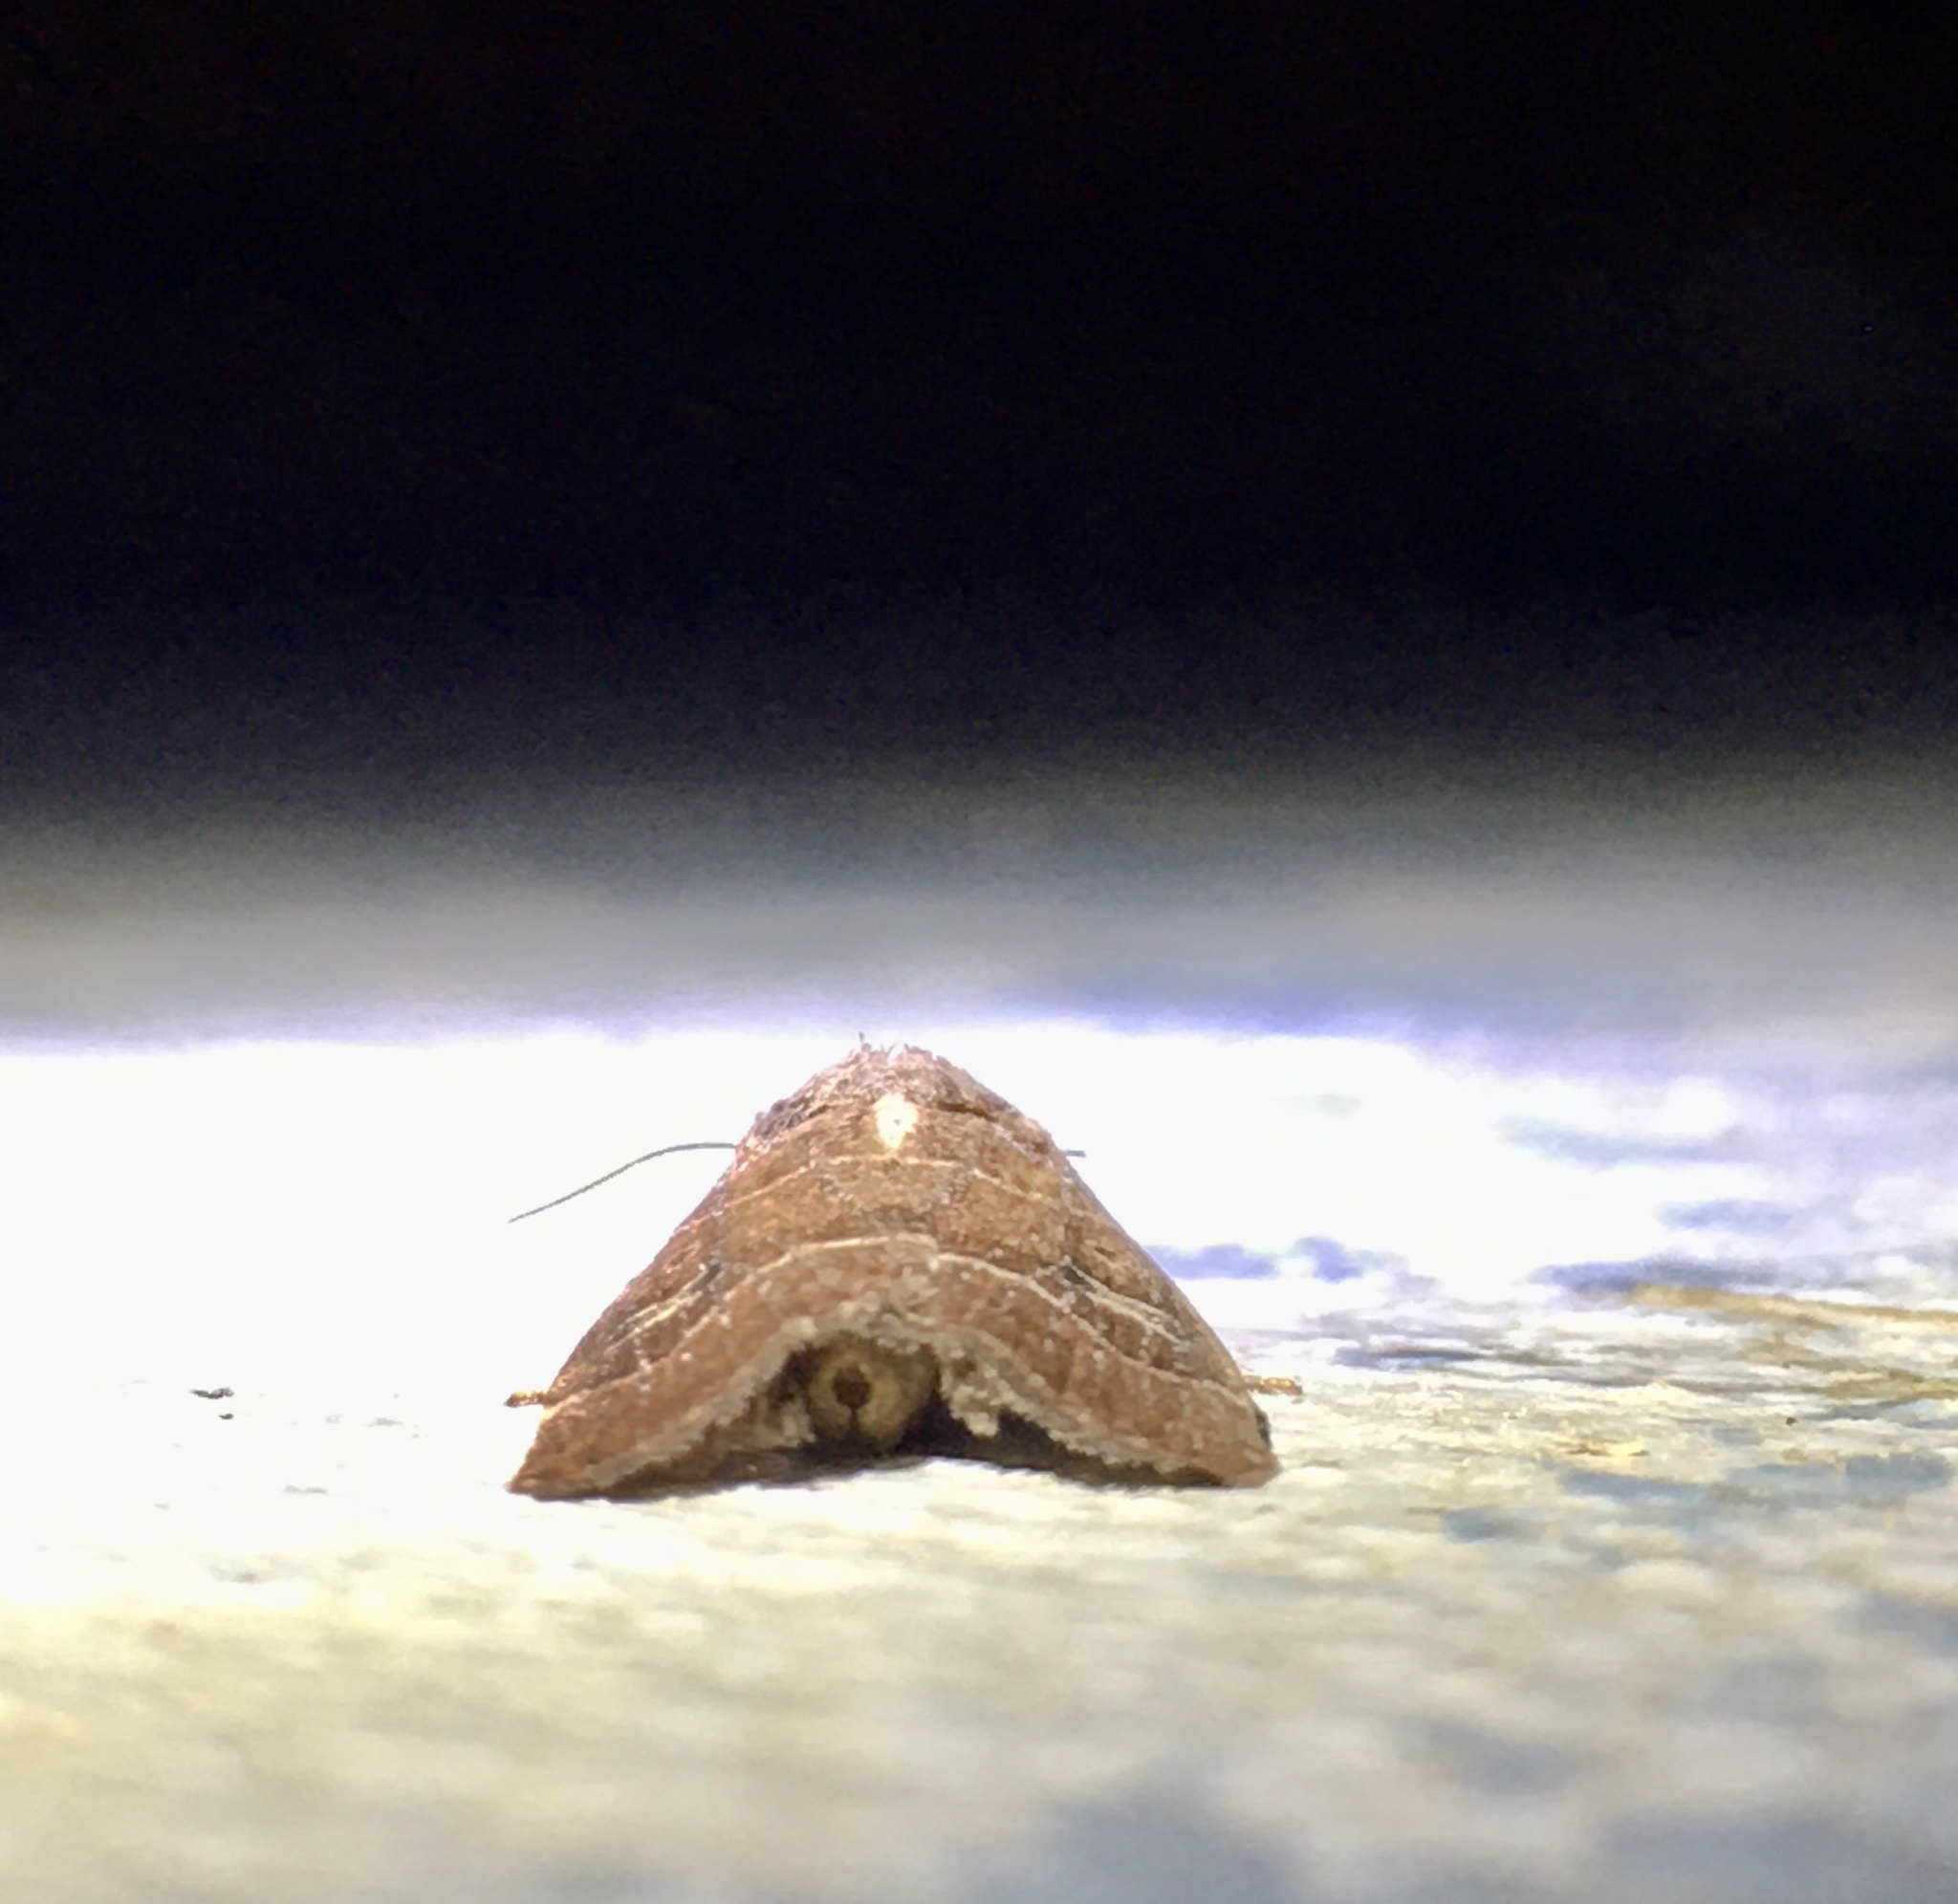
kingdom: Animalia
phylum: Arthropoda
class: Insecta
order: Lepidoptera
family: Noctuidae
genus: Elaphria
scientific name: Elaphria grata
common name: Grateful midget moth
